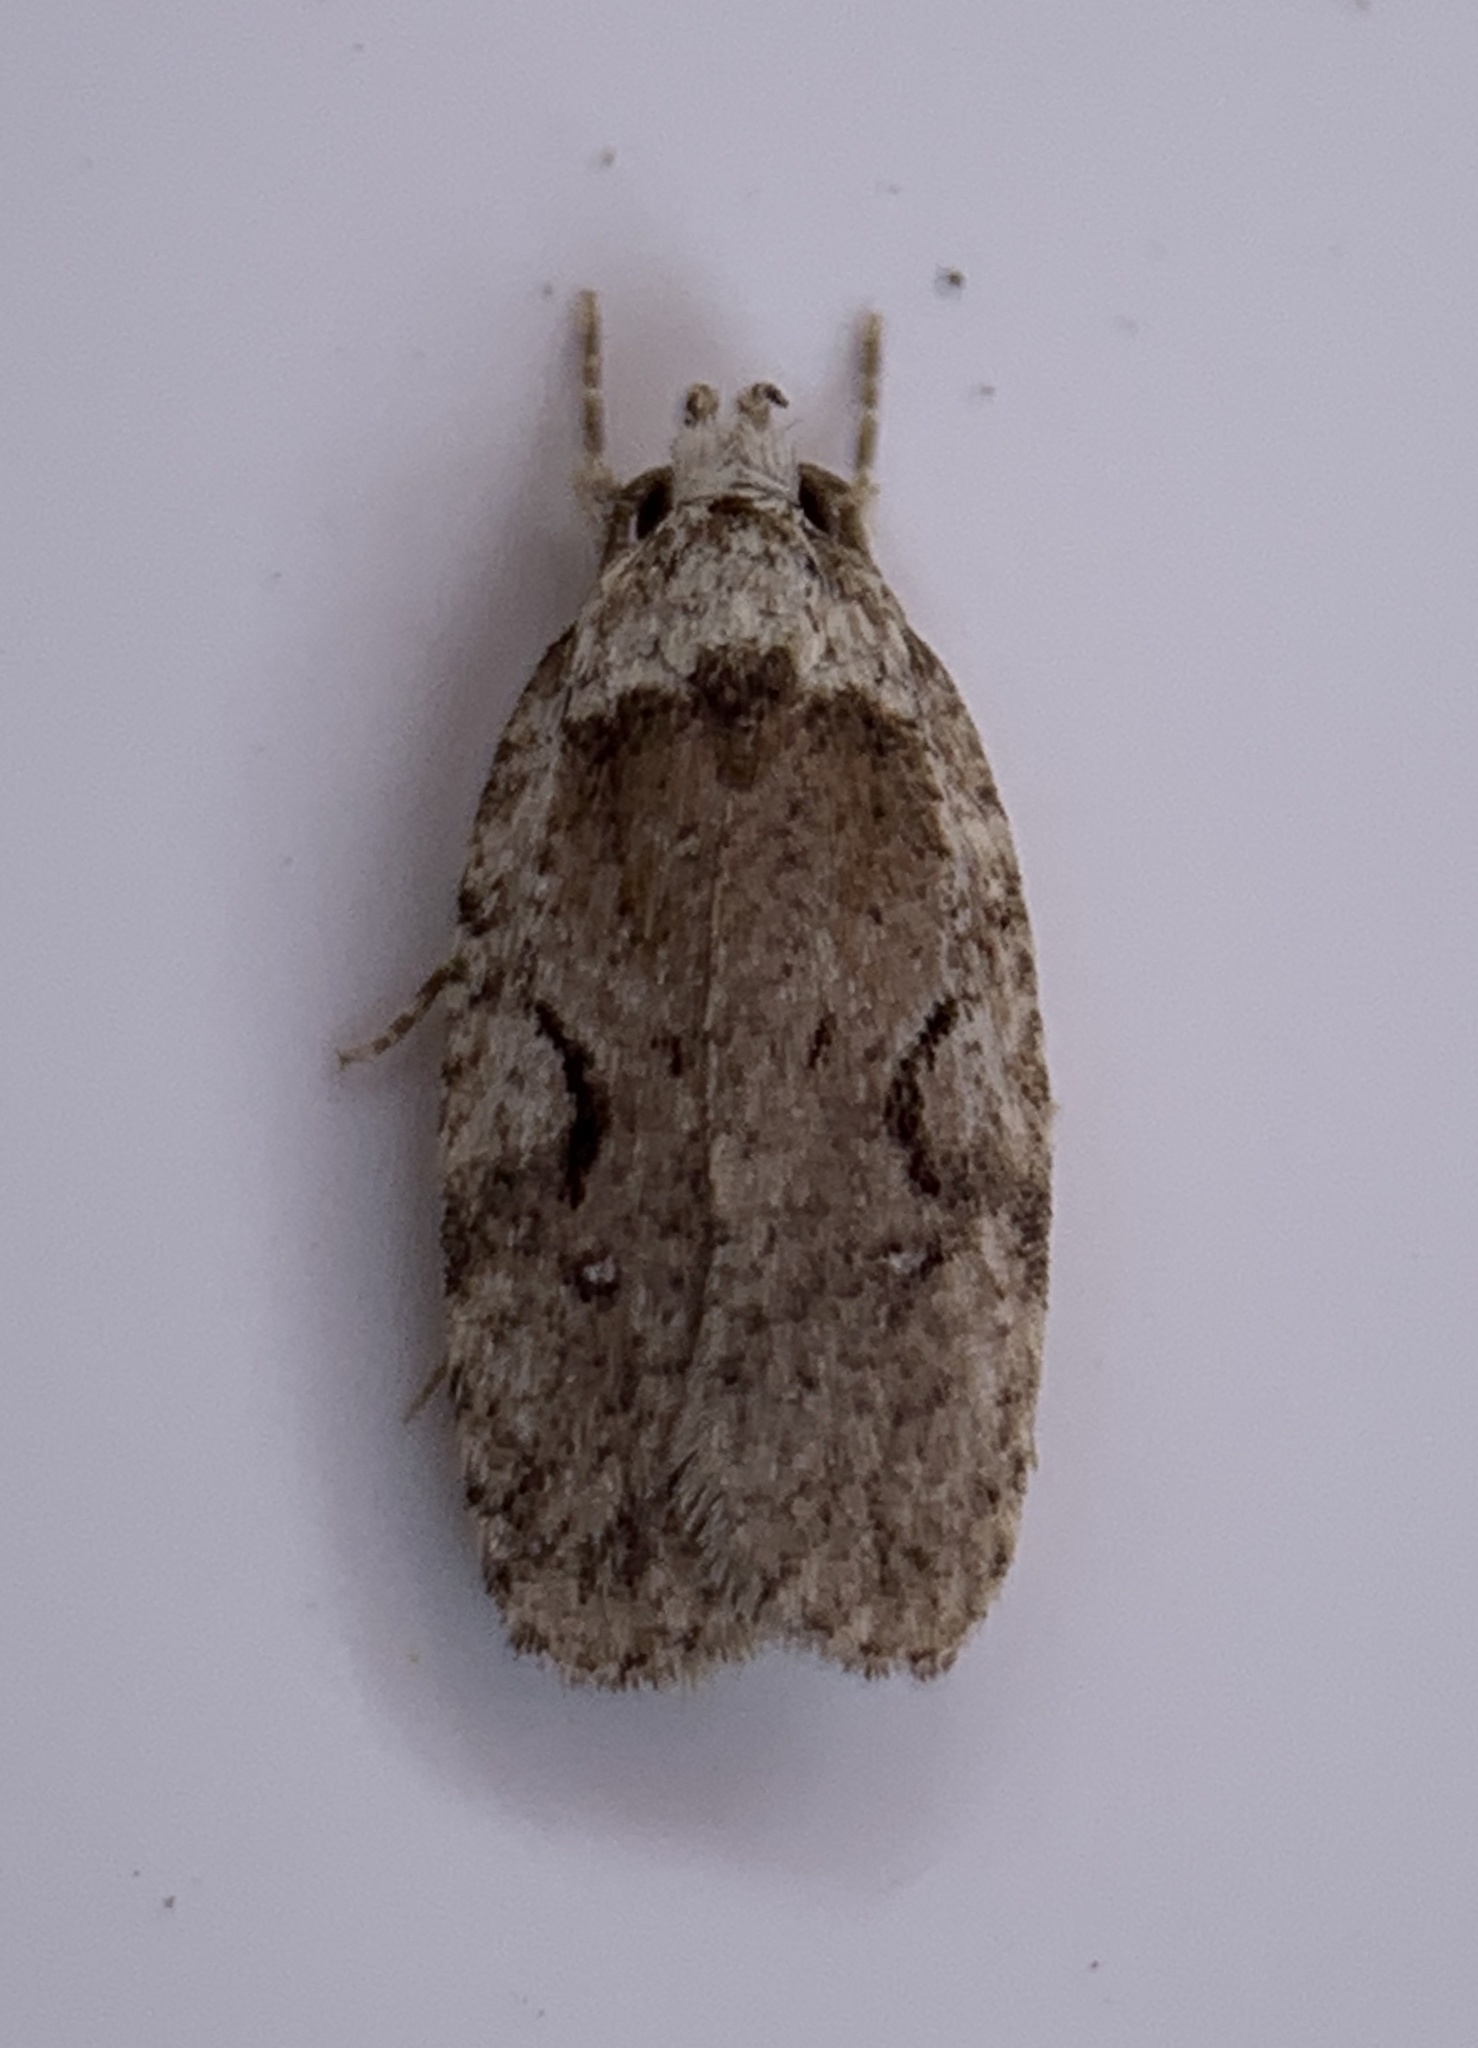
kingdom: Animalia
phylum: Arthropoda
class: Insecta
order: Lepidoptera
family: Depressariidae
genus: Agonopterix
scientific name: Agonopterix curvilineella
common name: Curved-line agonopterix moth
